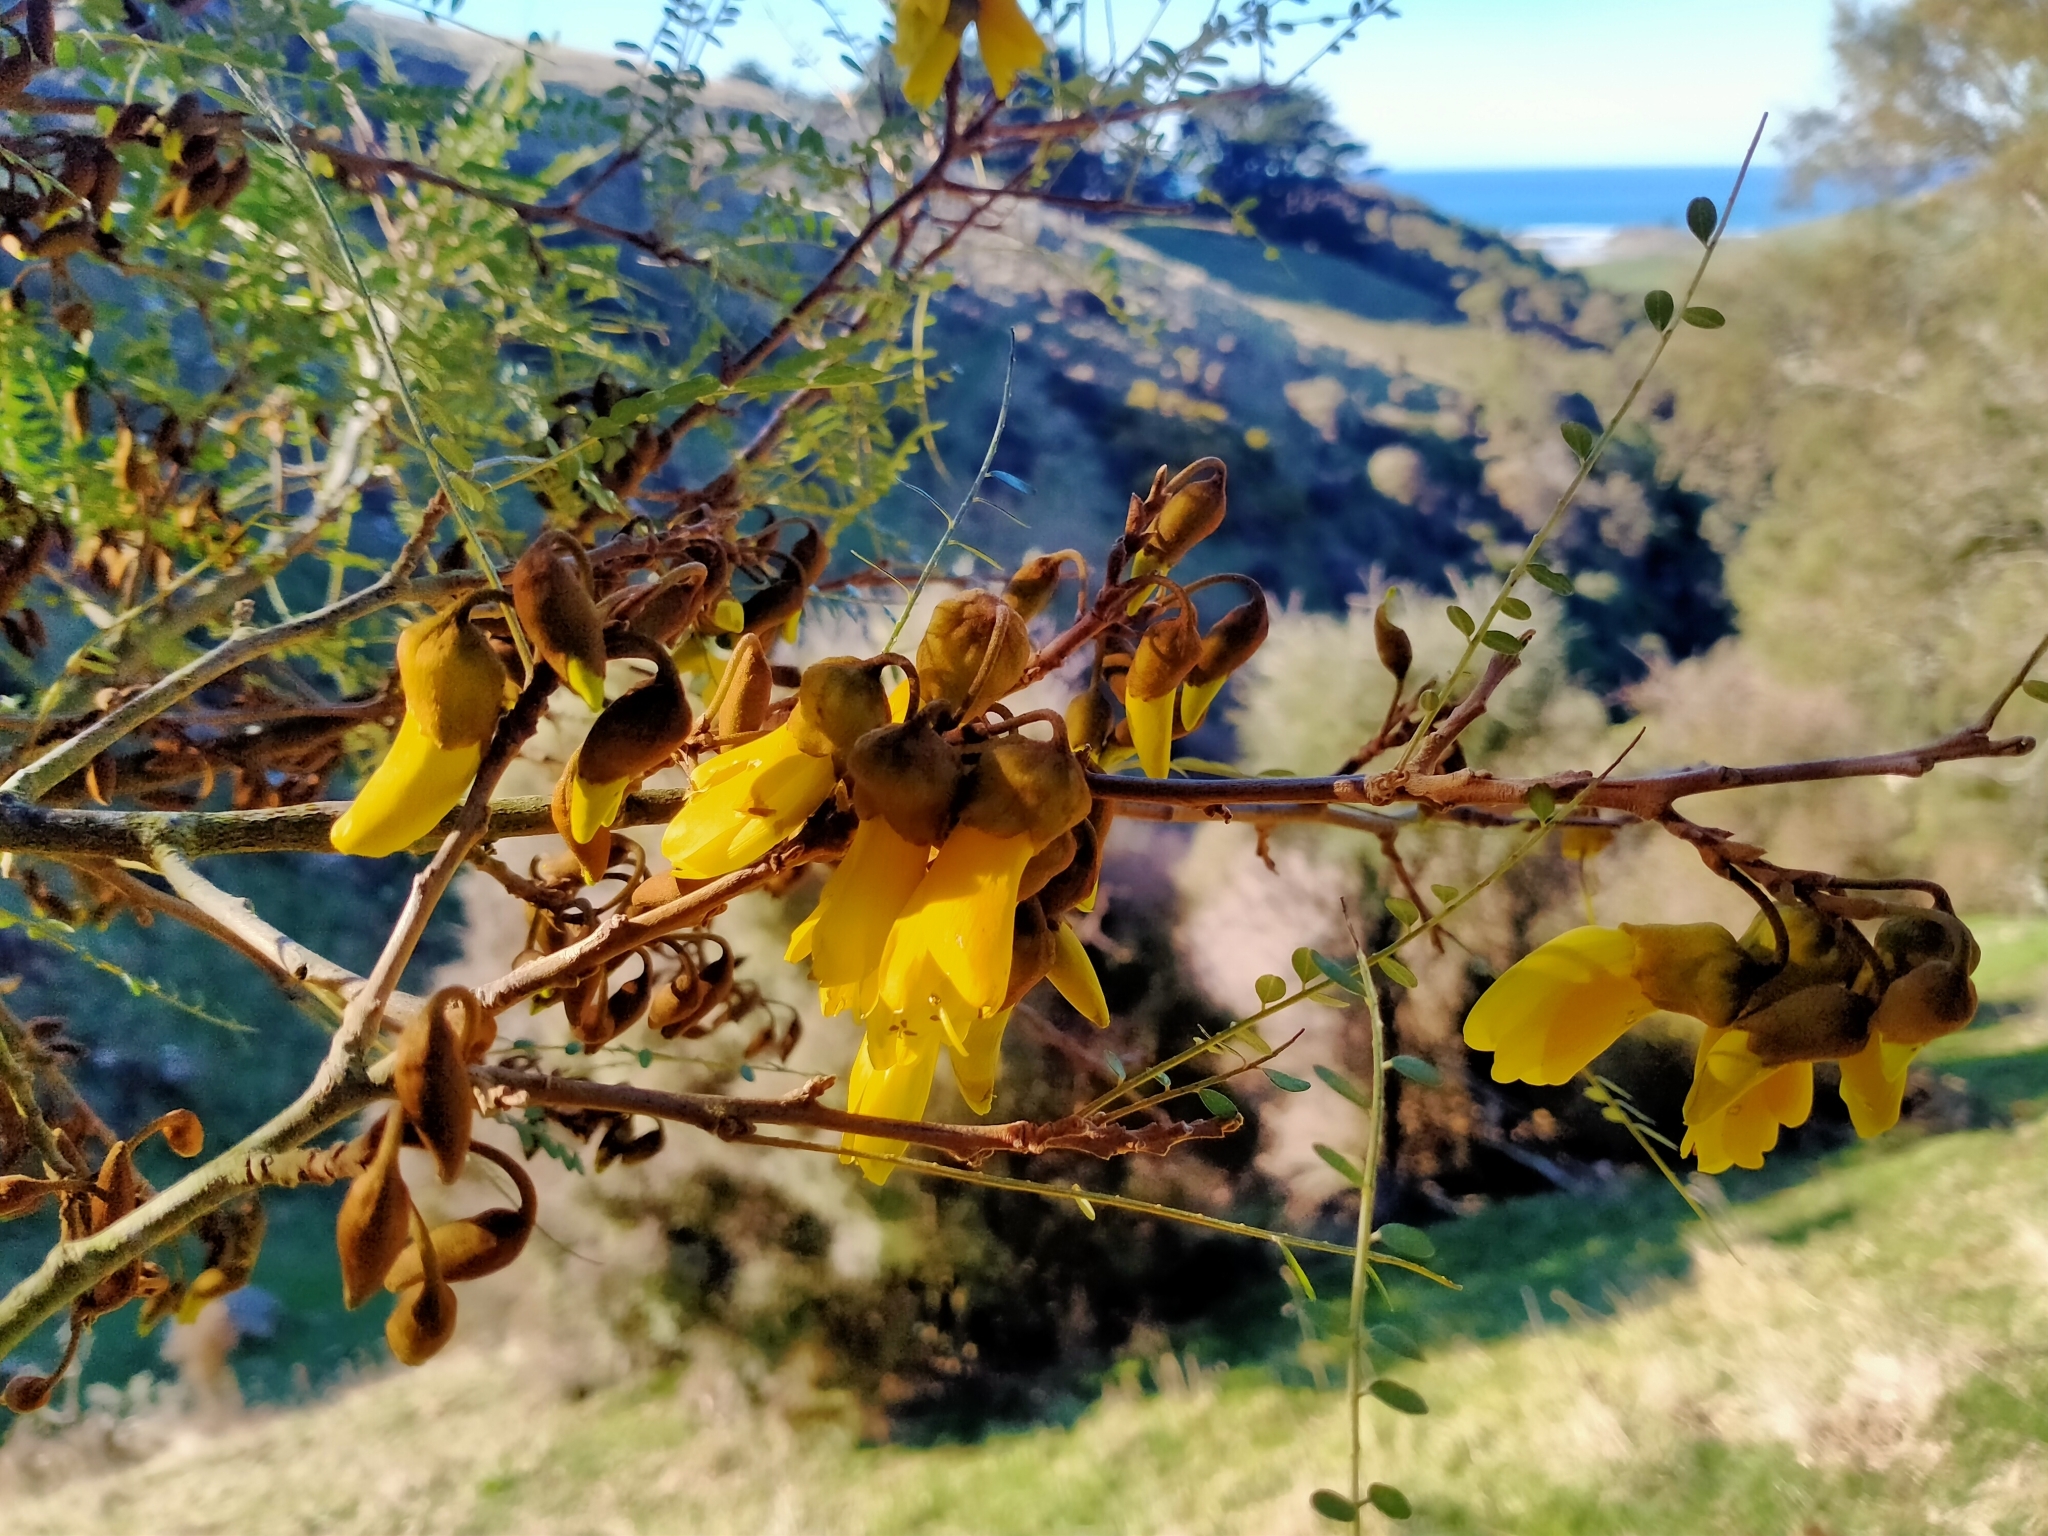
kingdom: Plantae
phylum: Tracheophyta
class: Magnoliopsida
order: Fabales
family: Fabaceae
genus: Sophora
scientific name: Sophora microphylla
